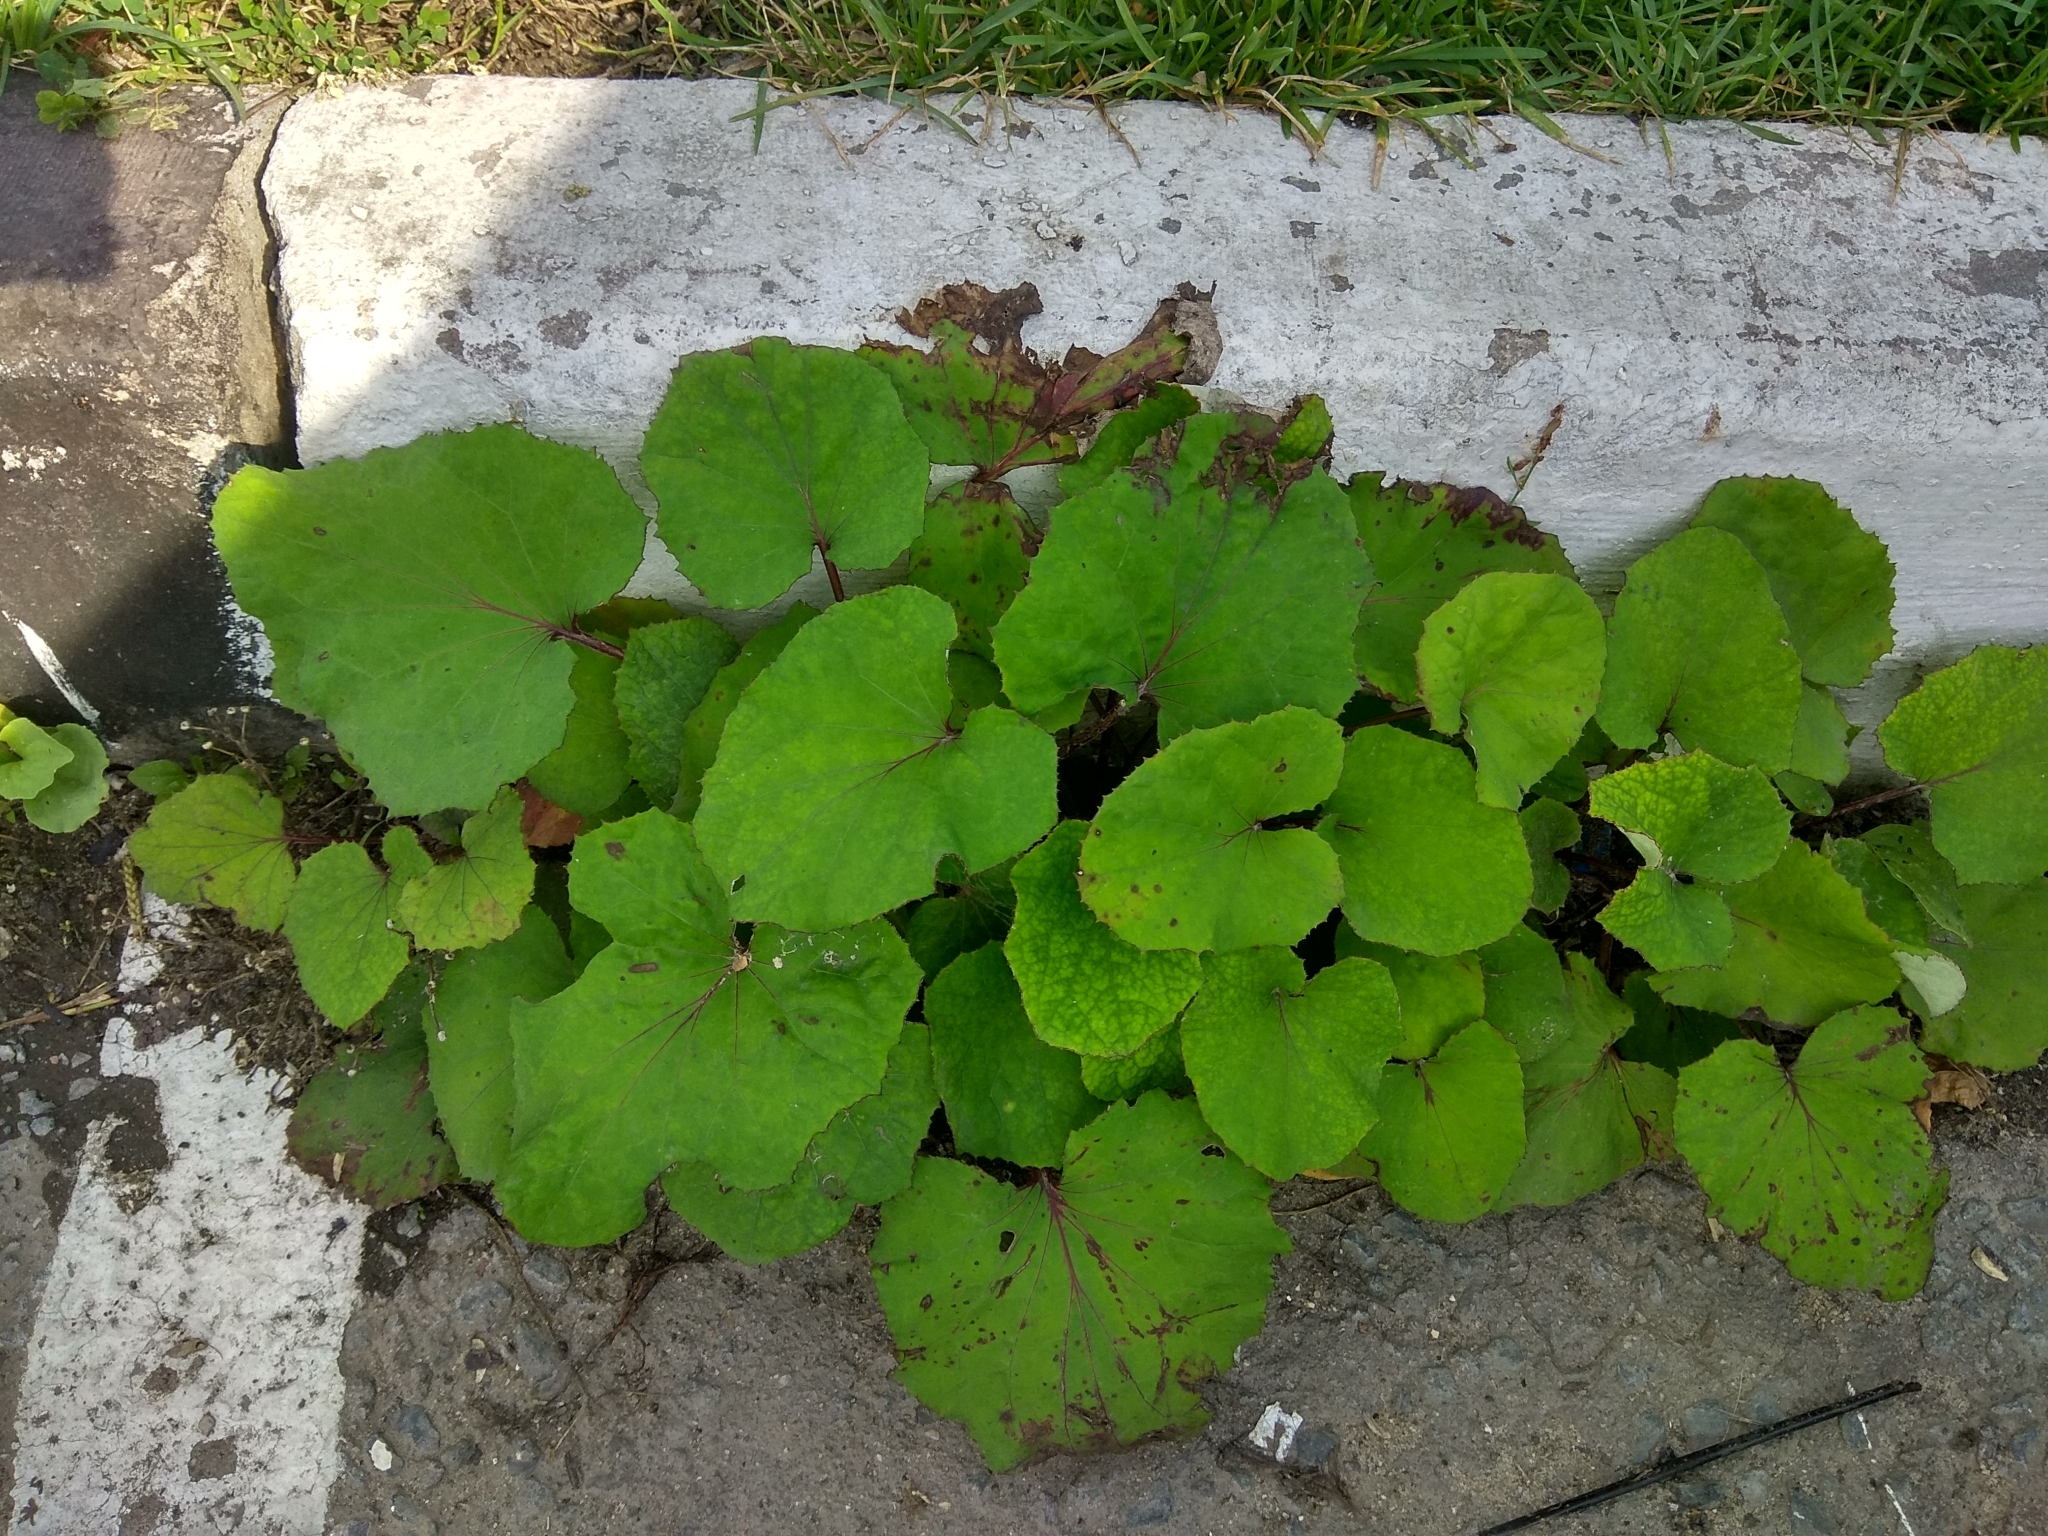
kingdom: Plantae
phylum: Tracheophyta
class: Magnoliopsida
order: Asterales
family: Asteraceae
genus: Tussilago
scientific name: Tussilago farfara
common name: Coltsfoot
